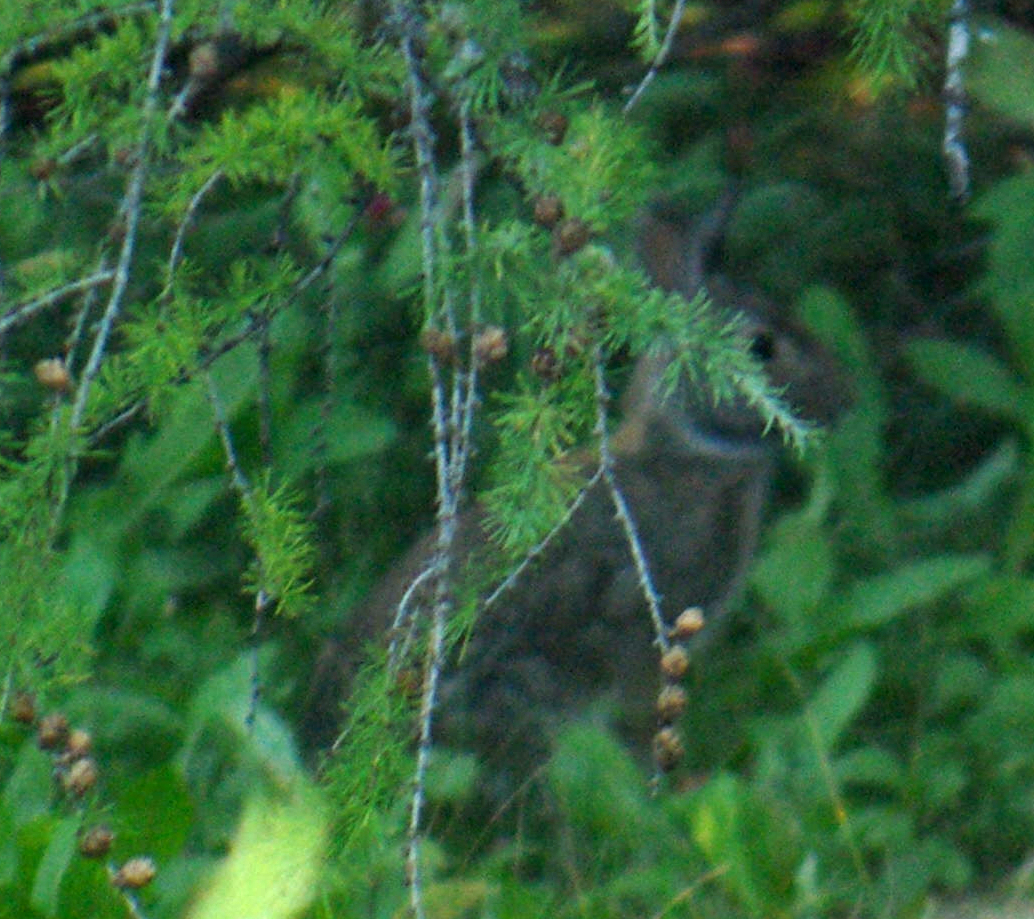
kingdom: Animalia
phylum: Chordata
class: Mammalia
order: Lagomorpha
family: Leporidae
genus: Sylvilagus
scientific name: Sylvilagus floridanus
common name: Eastern cottontail
